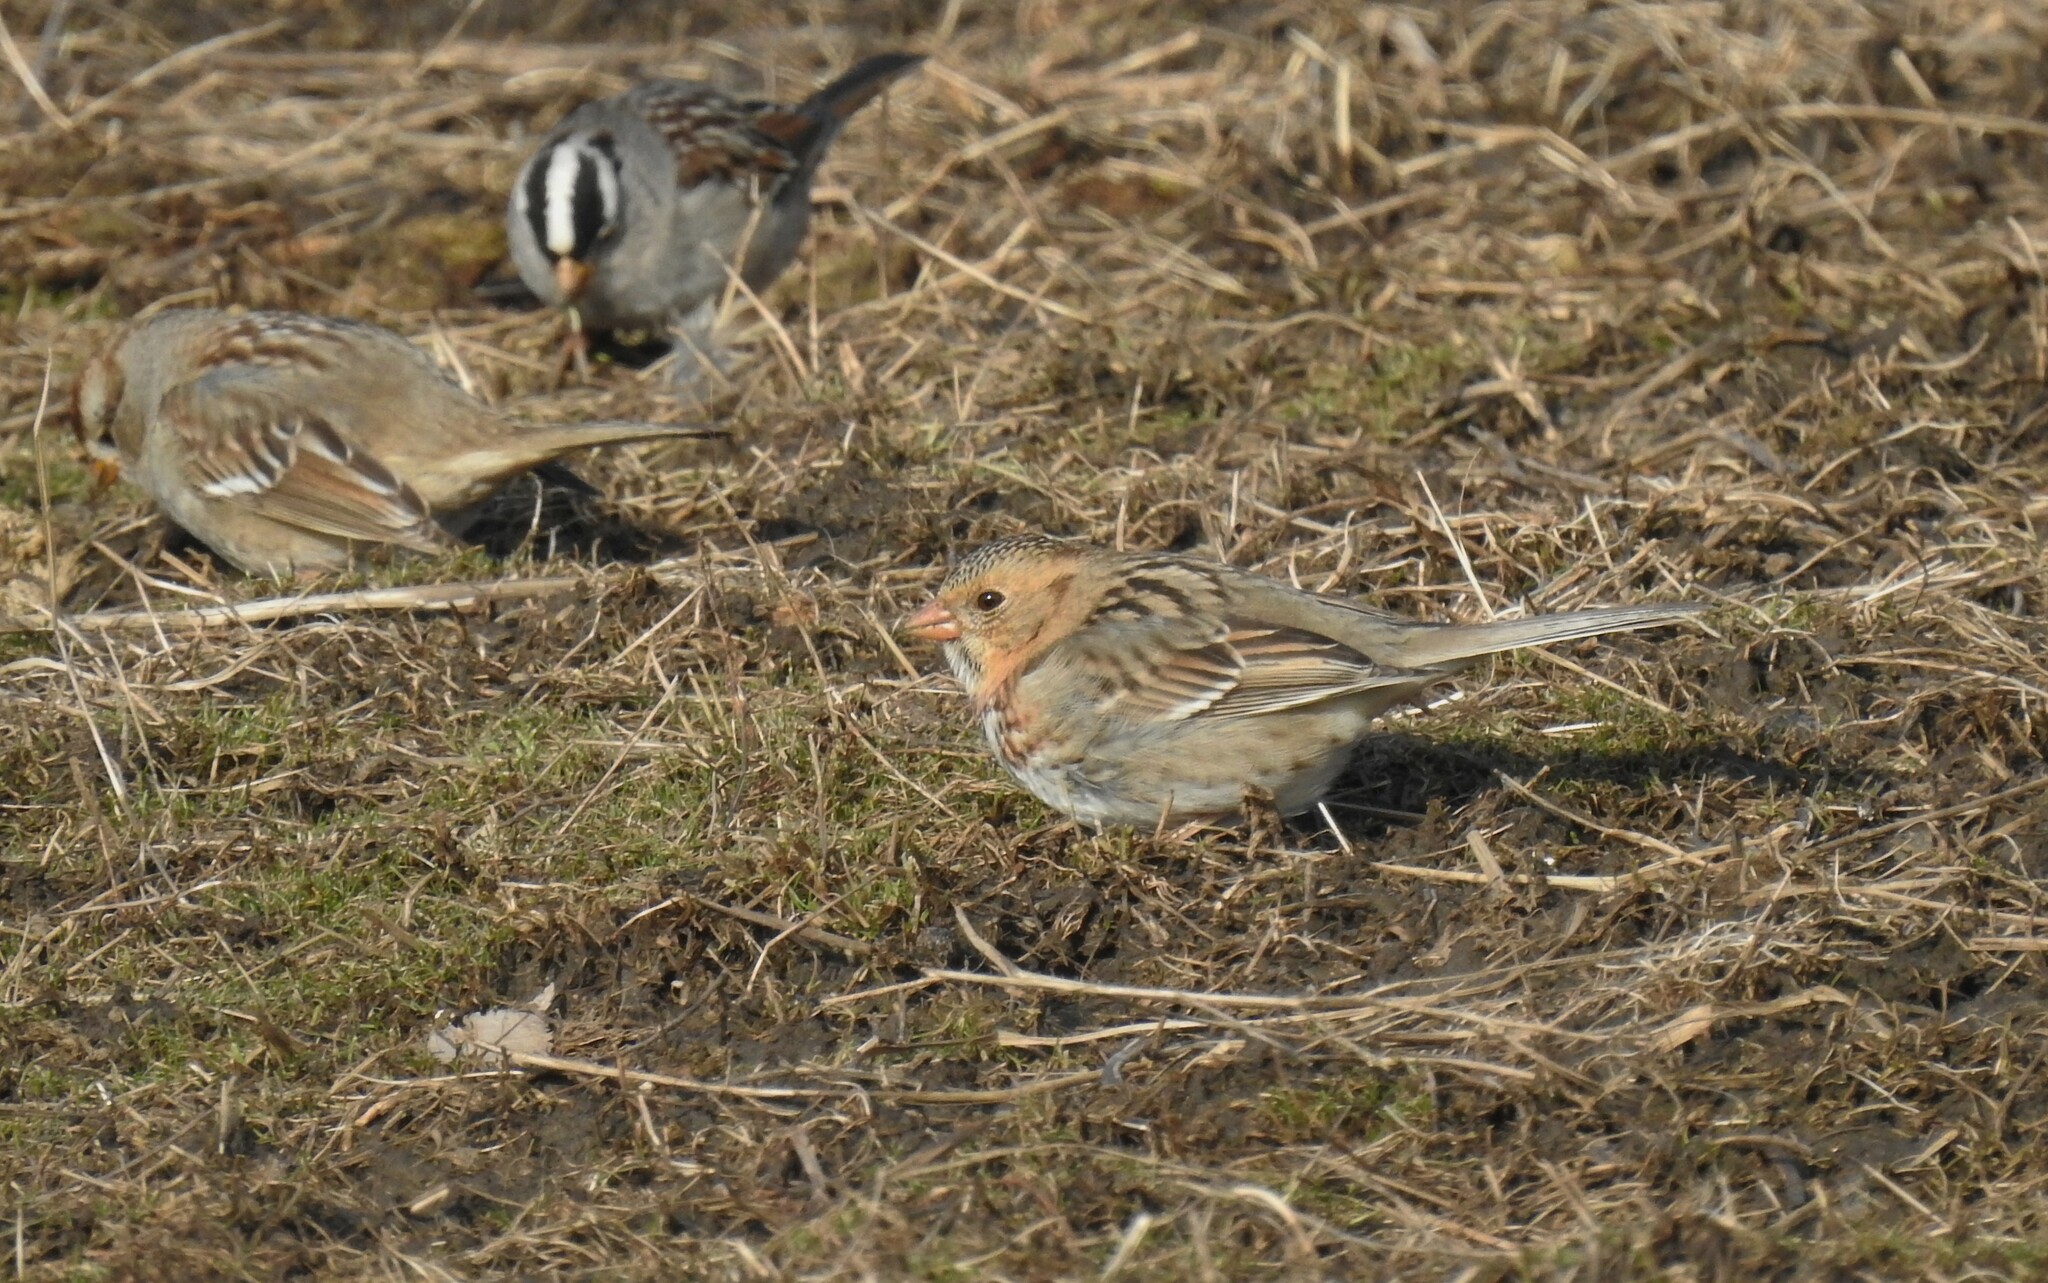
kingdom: Animalia
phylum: Chordata
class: Aves
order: Passeriformes
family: Passerellidae
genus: Zonotrichia
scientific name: Zonotrichia querula
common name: Harris's sparrow
